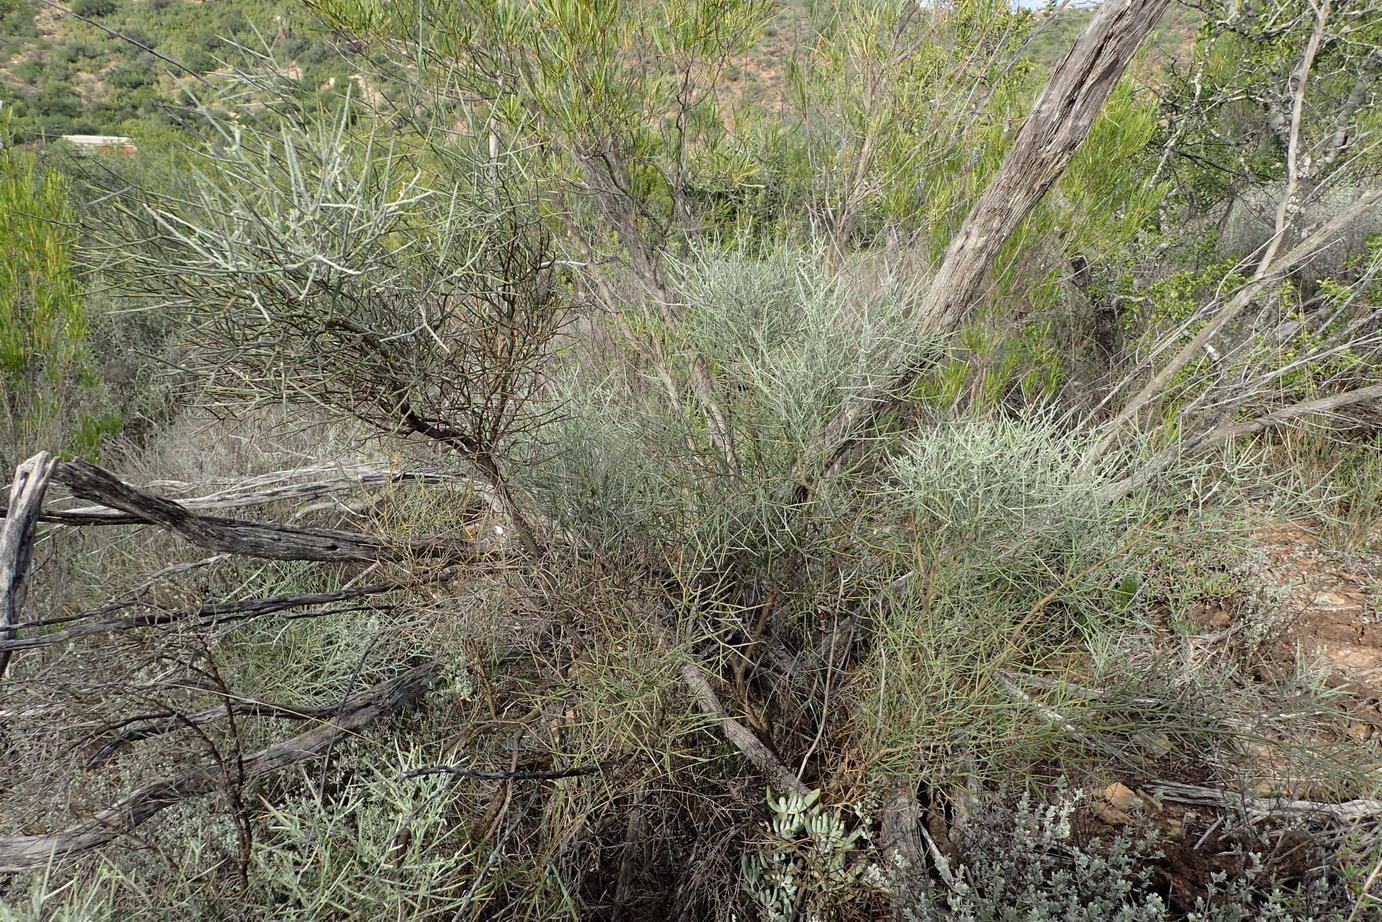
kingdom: Plantae
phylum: Tracheophyta
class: Magnoliopsida
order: Lamiales
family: Bignoniaceae
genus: Rhigozum
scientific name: Rhigozum obovatum
